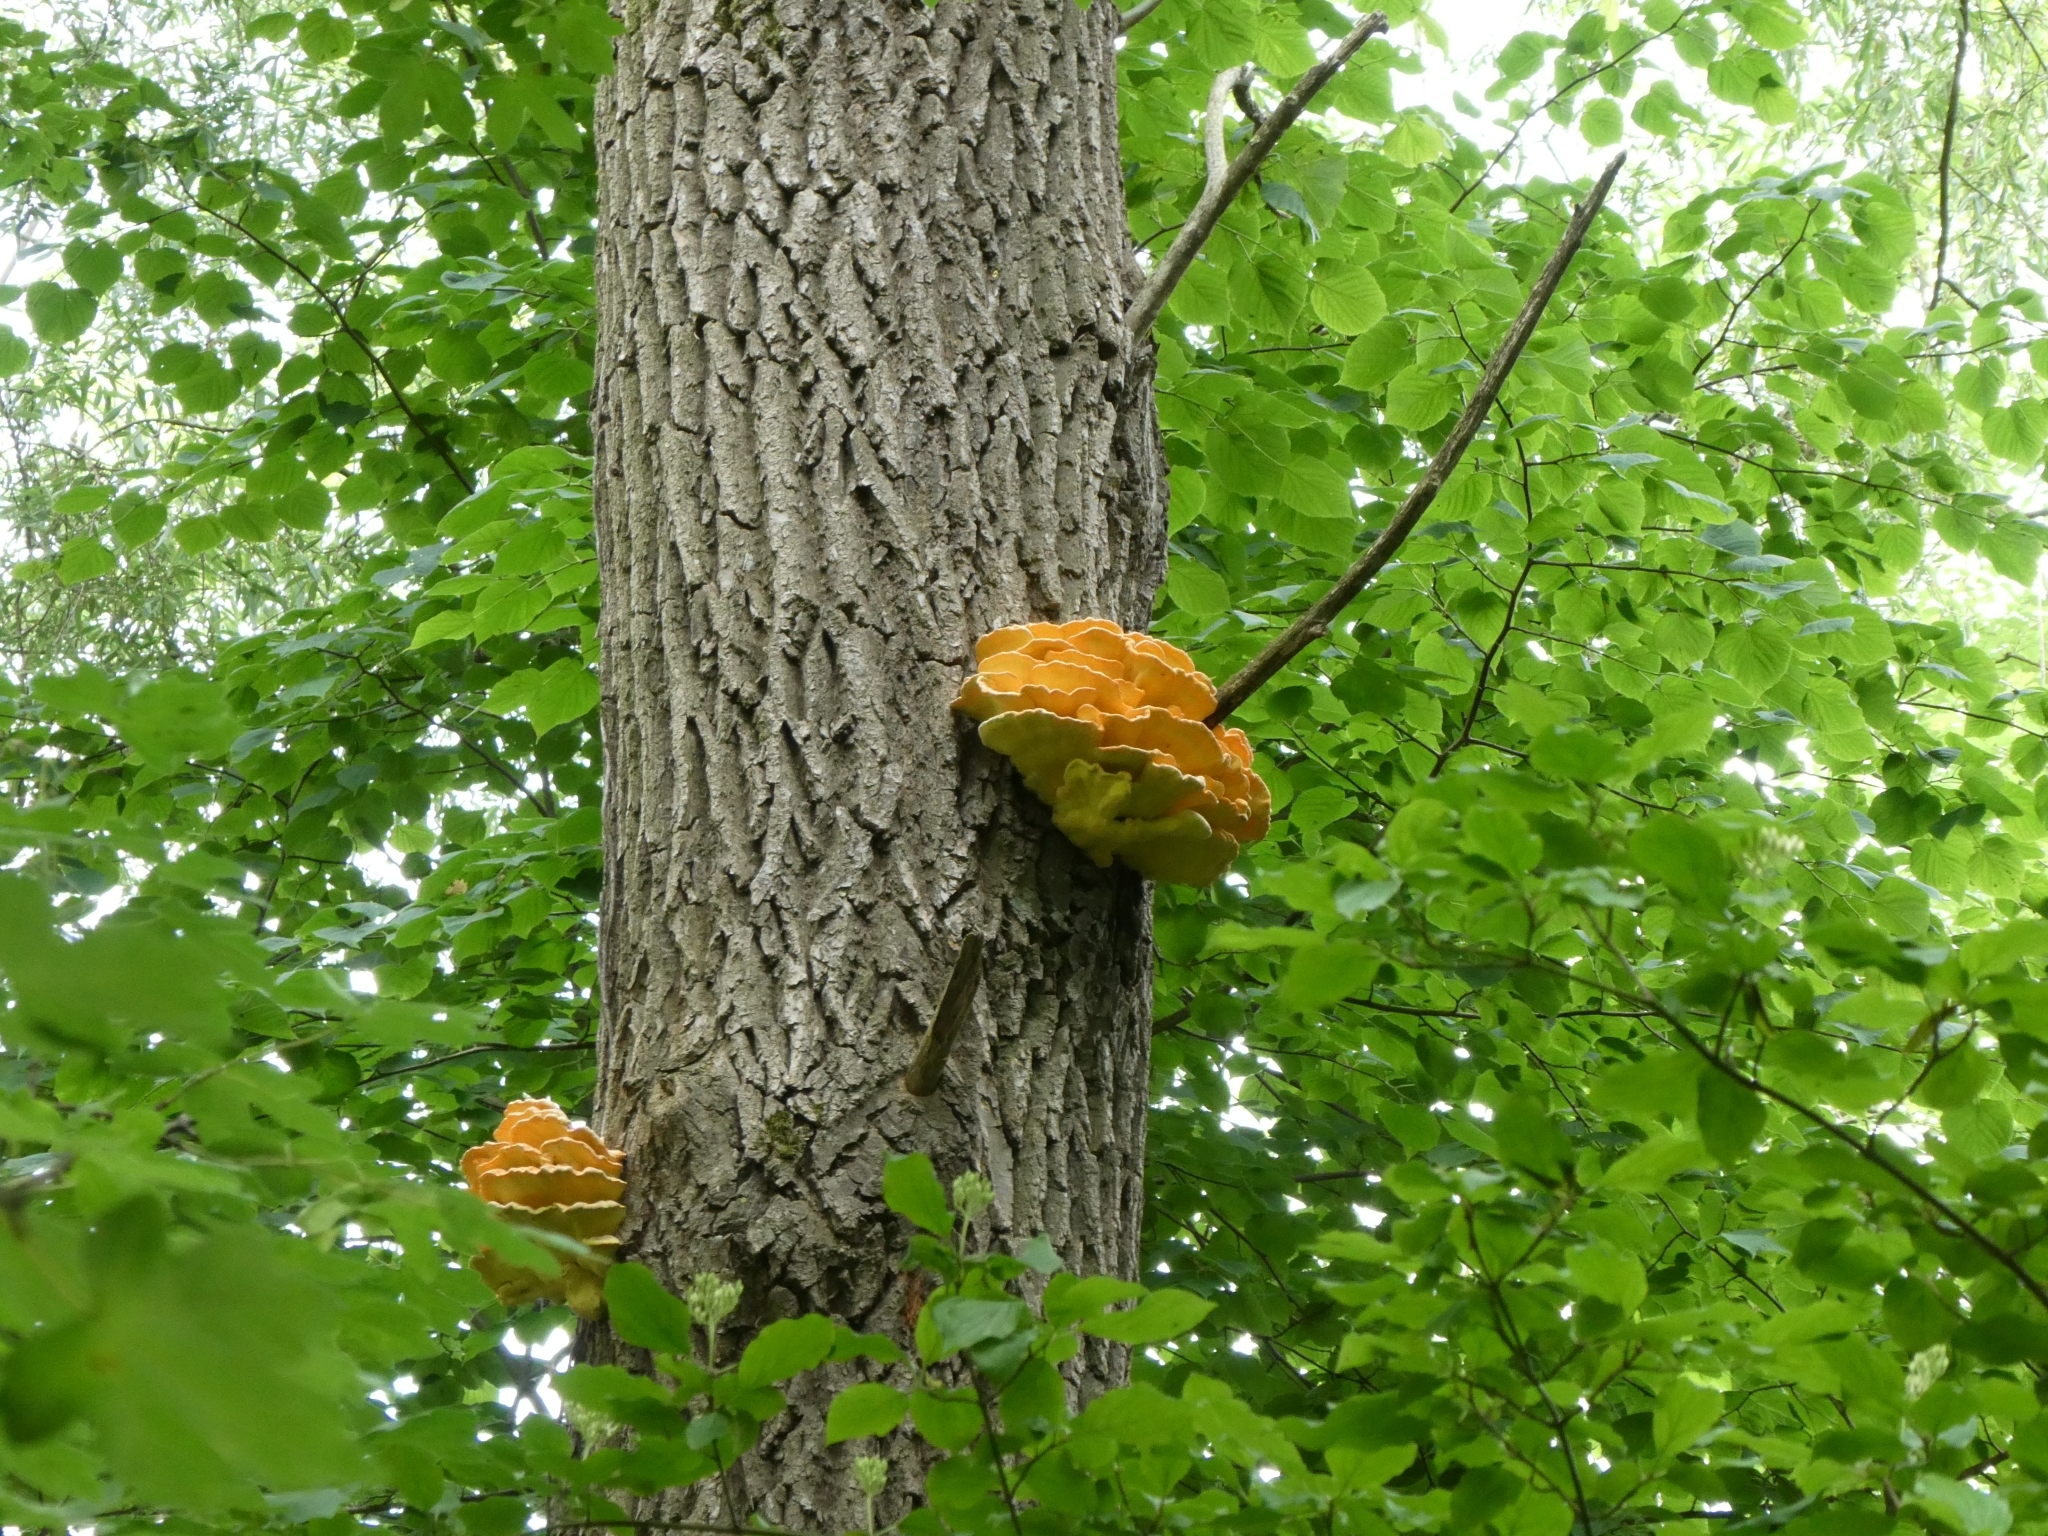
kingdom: Fungi
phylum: Basidiomycota
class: Agaricomycetes
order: Polyporales
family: Laetiporaceae
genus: Laetiporus
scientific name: Laetiporus sulphureus
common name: Chicken of the woods
